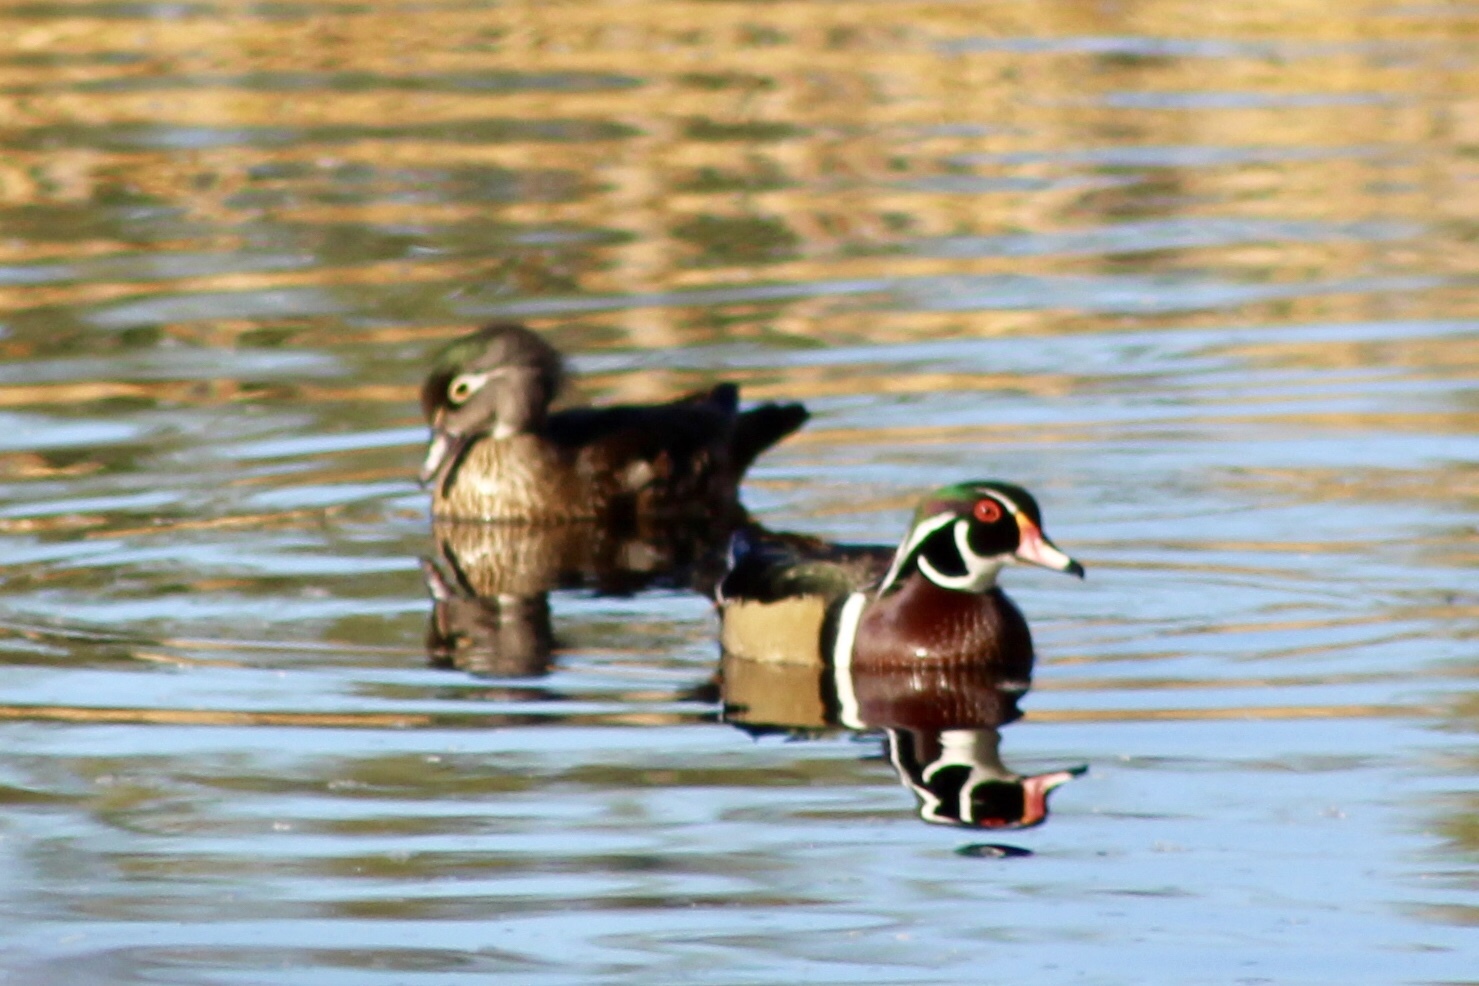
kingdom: Animalia
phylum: Chordata
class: Aves
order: Anseriformes
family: Anatidae
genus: Aix
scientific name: Aix sponsa
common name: Wood duck
